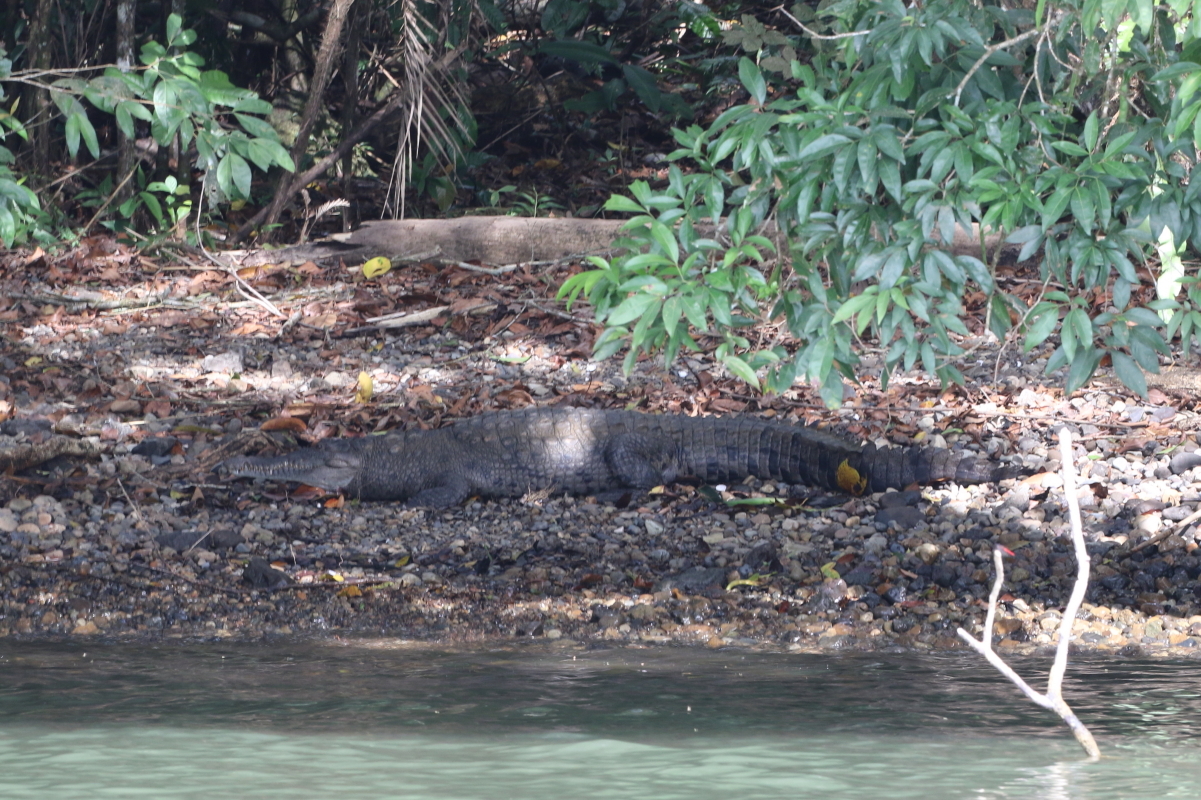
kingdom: Animalia
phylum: Chordata
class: Crocodylia
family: Crocodylidae
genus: Crocodylus
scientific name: Crocodylus acutus
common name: American crocodile
